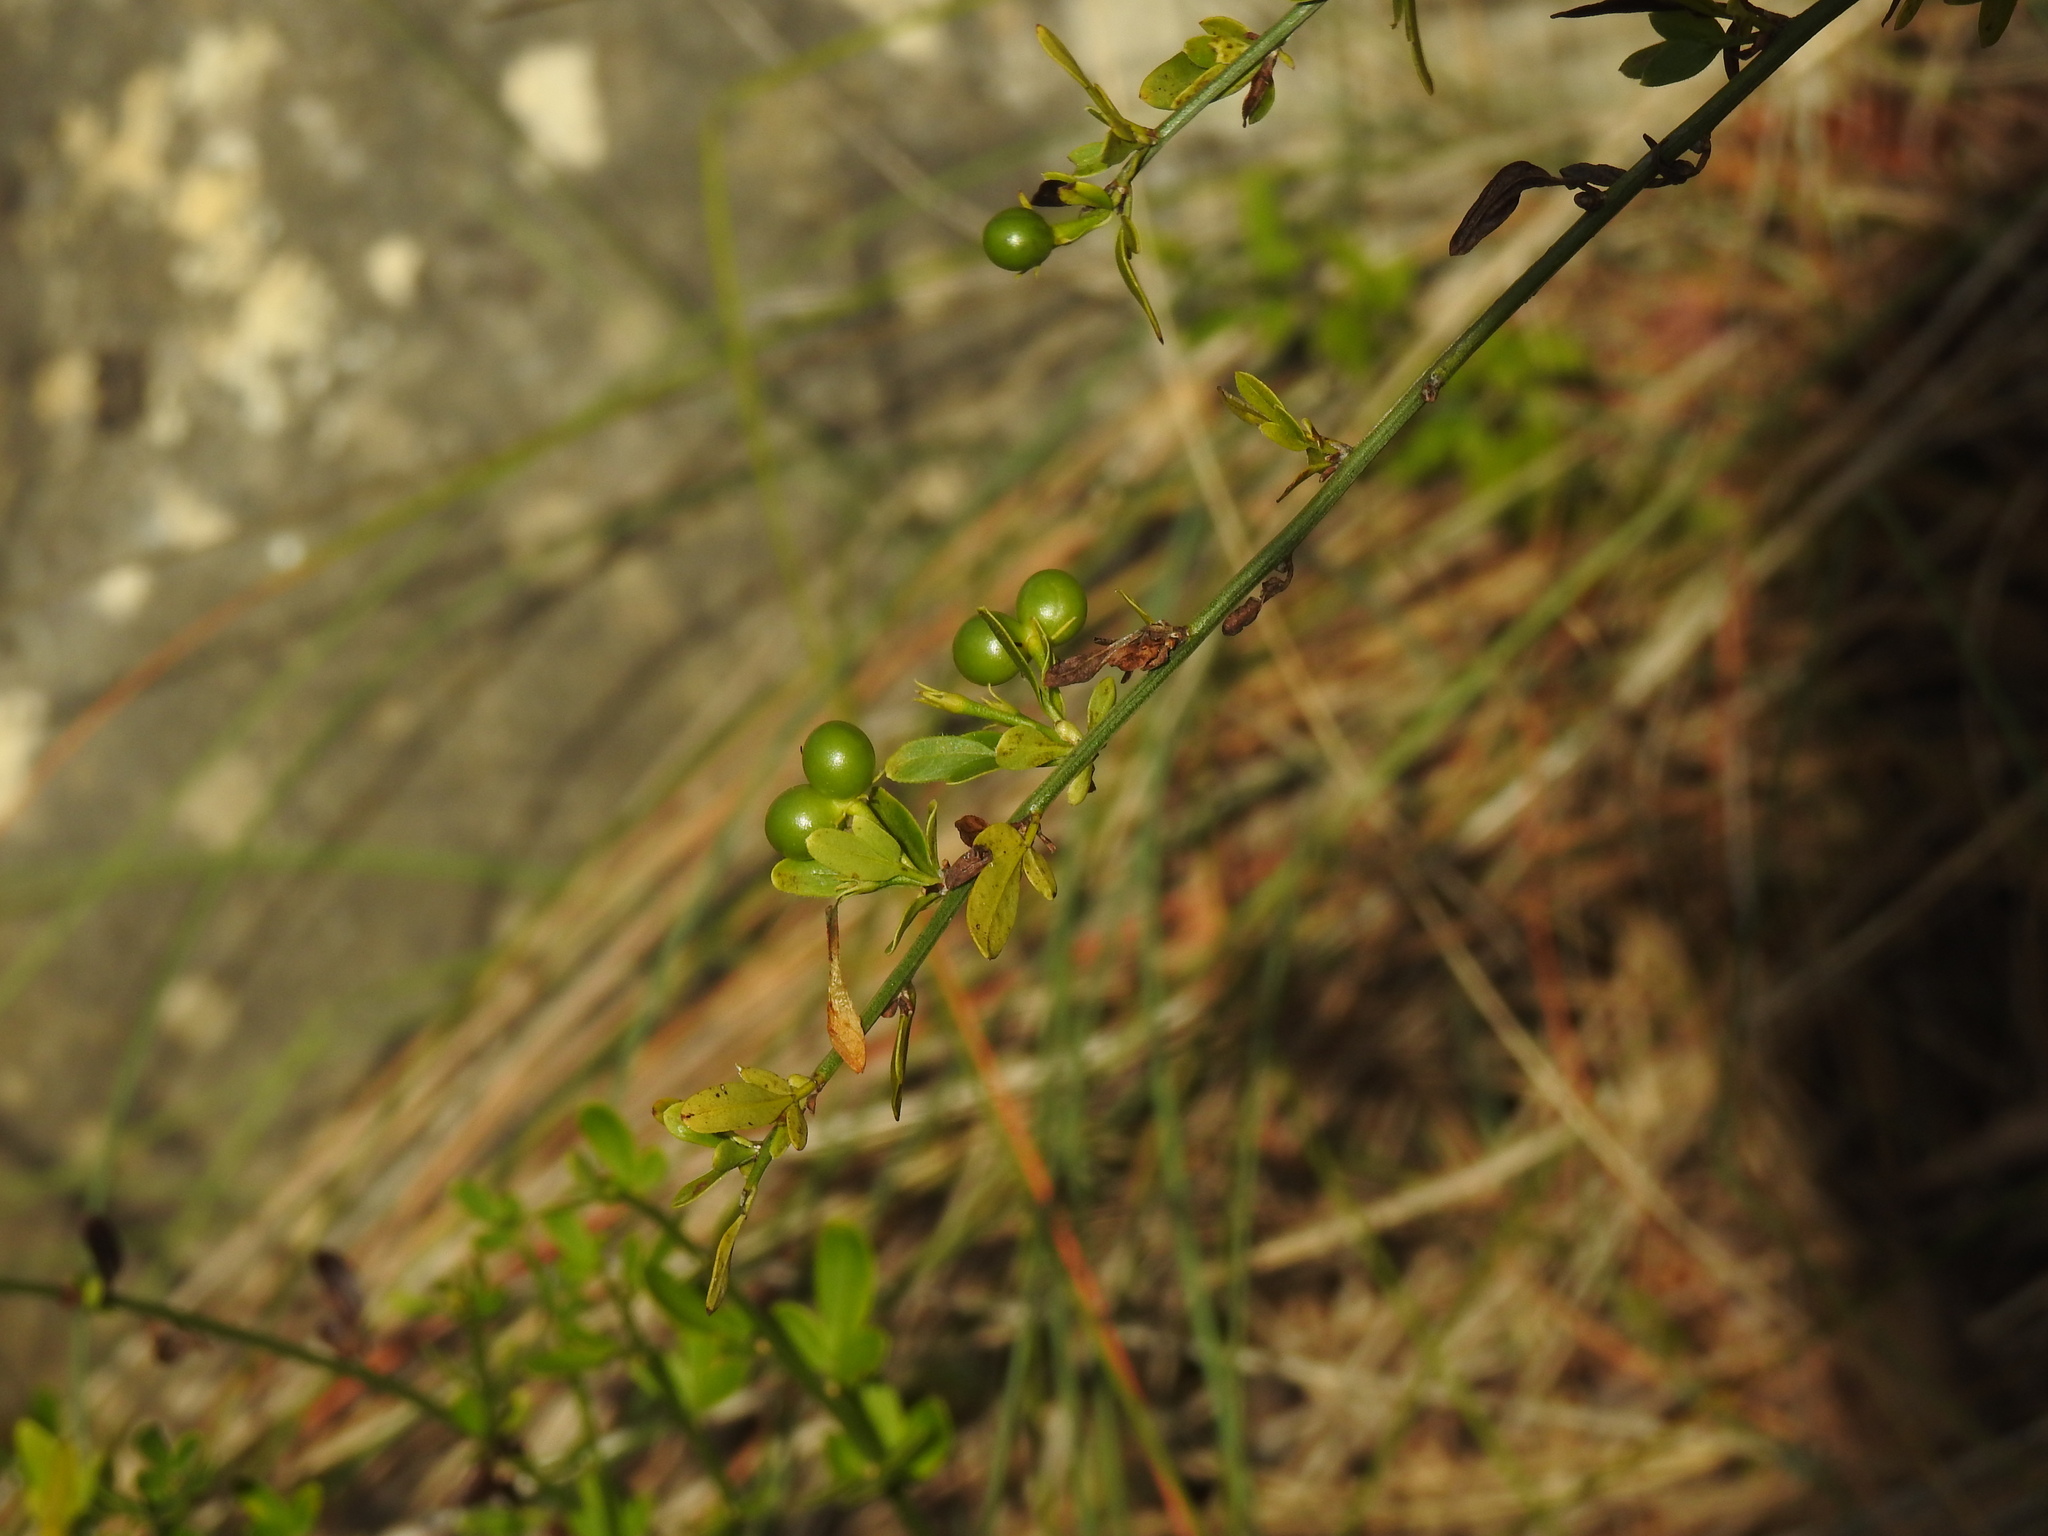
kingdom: Plantae
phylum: Tracheophyta
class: Magnoliopsida
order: Lamiales
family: Oleaceae
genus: Chrysojasminum
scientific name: Chrysojasminum fruticans
